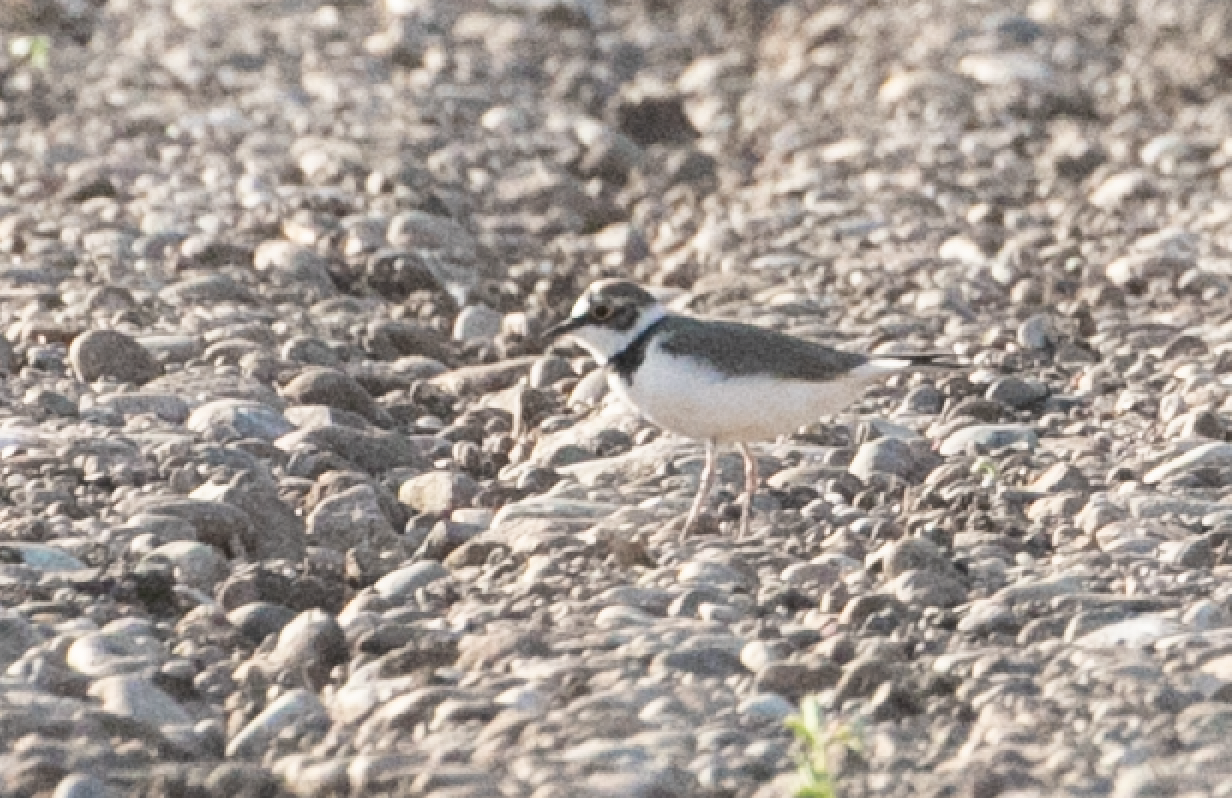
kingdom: Animalia
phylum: Chordata
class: Aves
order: Charadriiformes
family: Charadriidae
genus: Charadrius
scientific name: Charadrius dubius
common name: Little ringed plover
